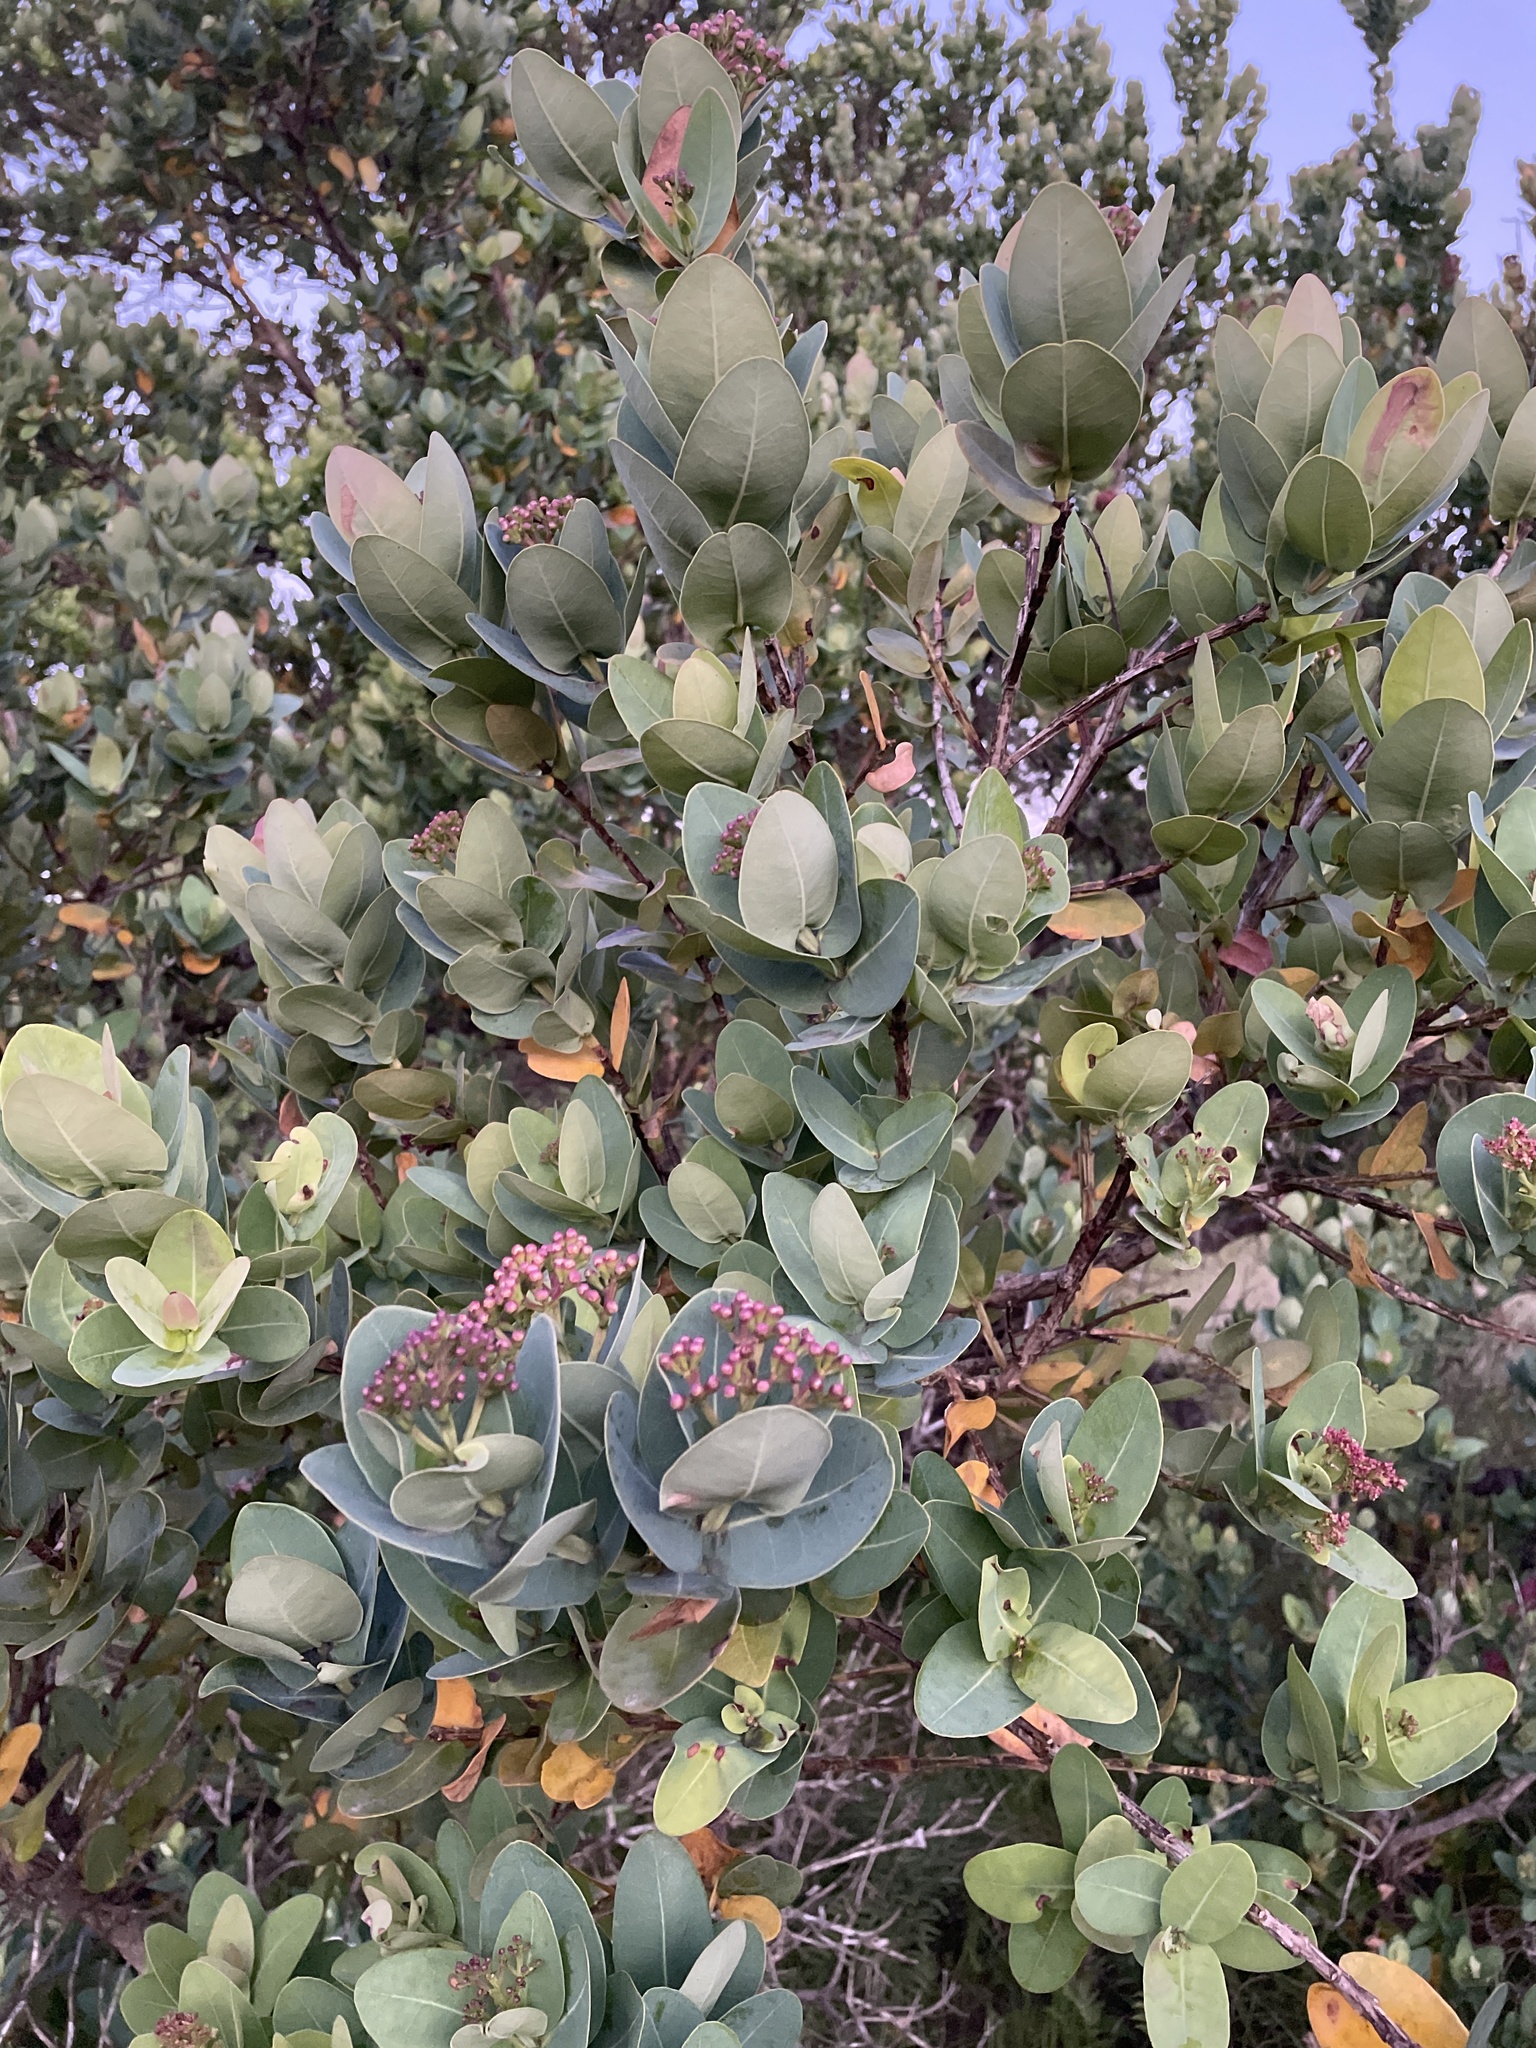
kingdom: Plantae
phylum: Tracheophyta
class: Magnoliopsida
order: Myrtales
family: Myrtaceae
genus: Syzygium
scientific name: Syzygium cordatum
